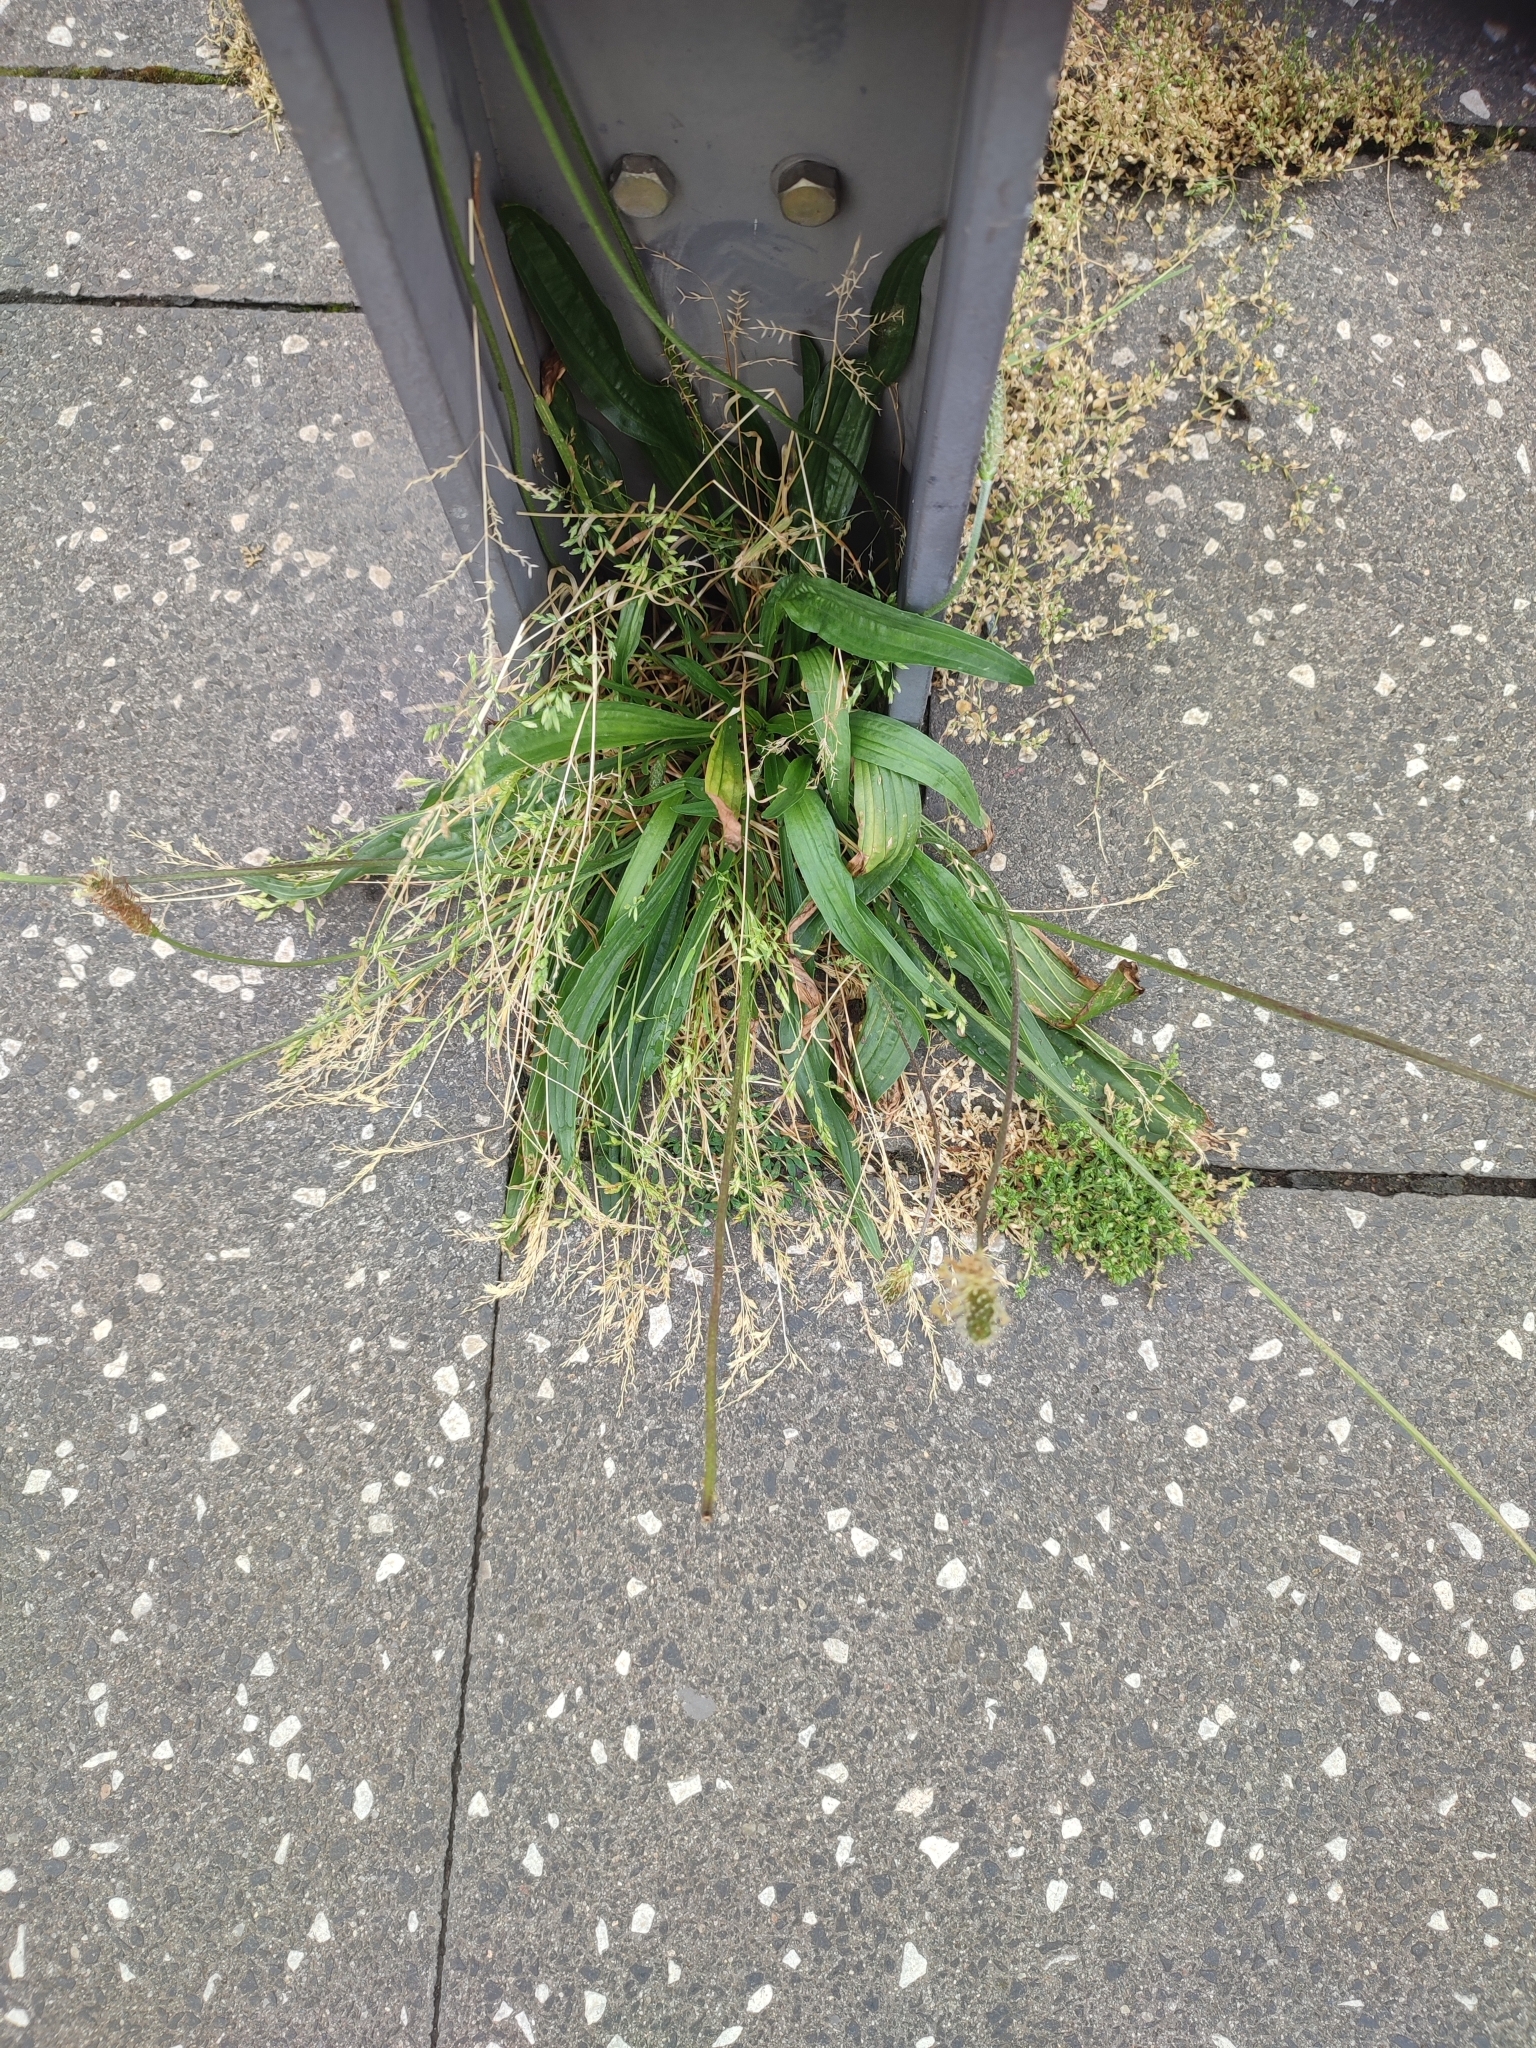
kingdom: Plantae
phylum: Tracheophyta
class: Magnoliopsida
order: Lamiales
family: Plantaginaceae
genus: Plantago
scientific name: Plantago lanceolata
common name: Ribwort plantain
